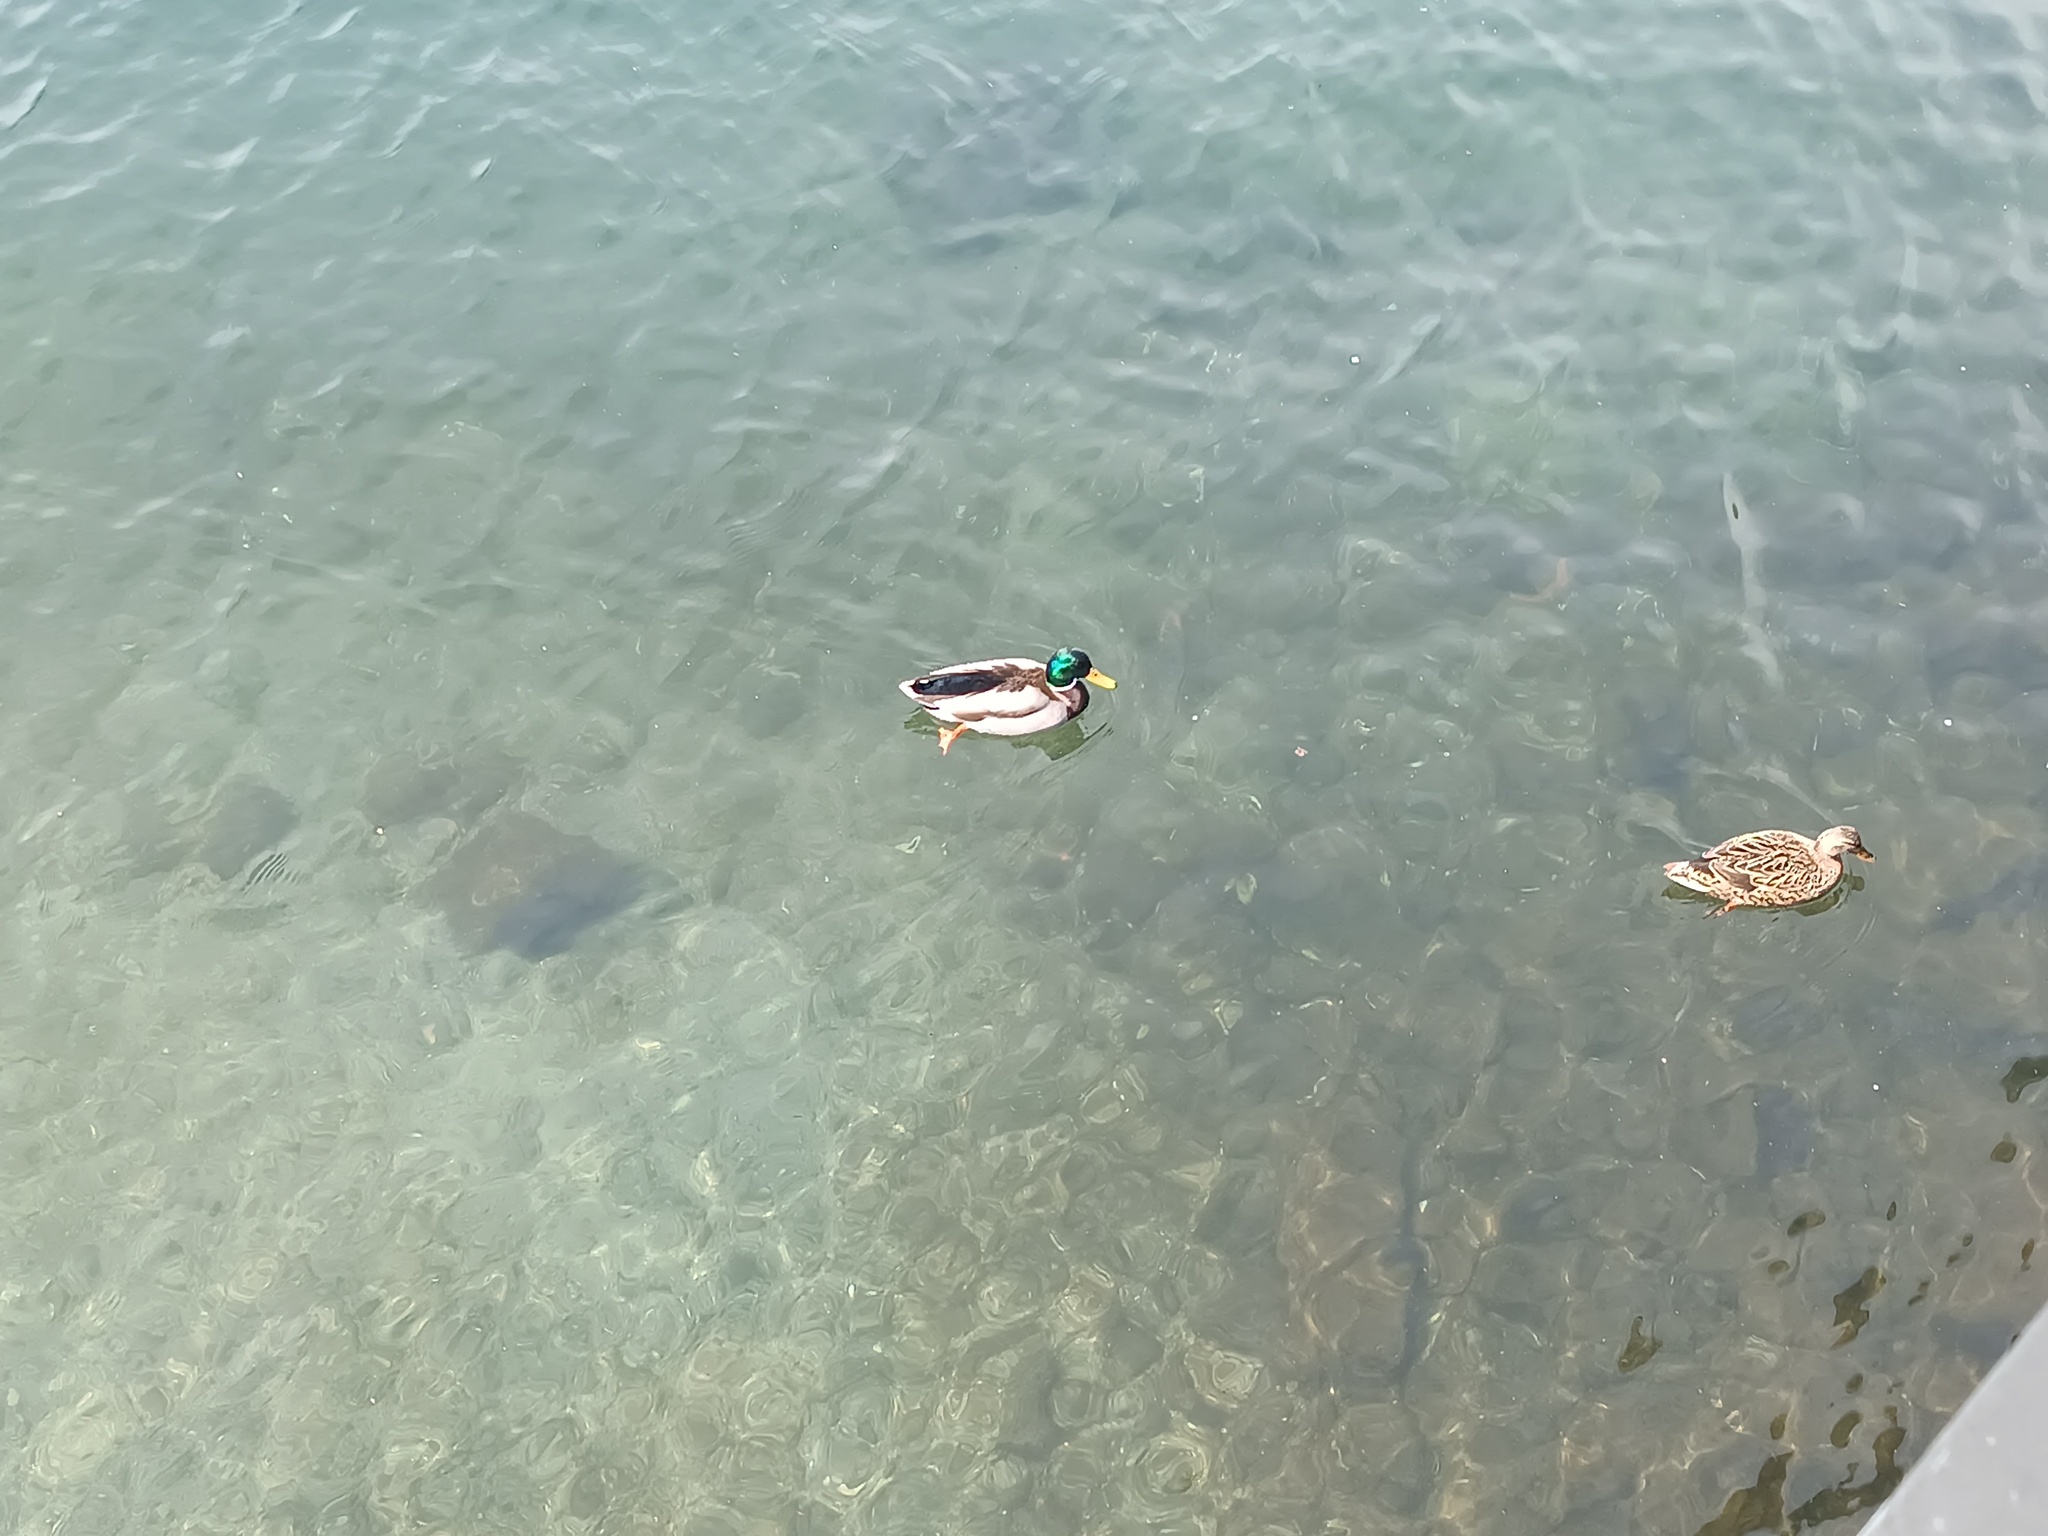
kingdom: Animalia
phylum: Chordata
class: Aves
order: Anseriformes
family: Anatidae
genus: Anas
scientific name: Anas platyrhynchos
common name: Mallard
